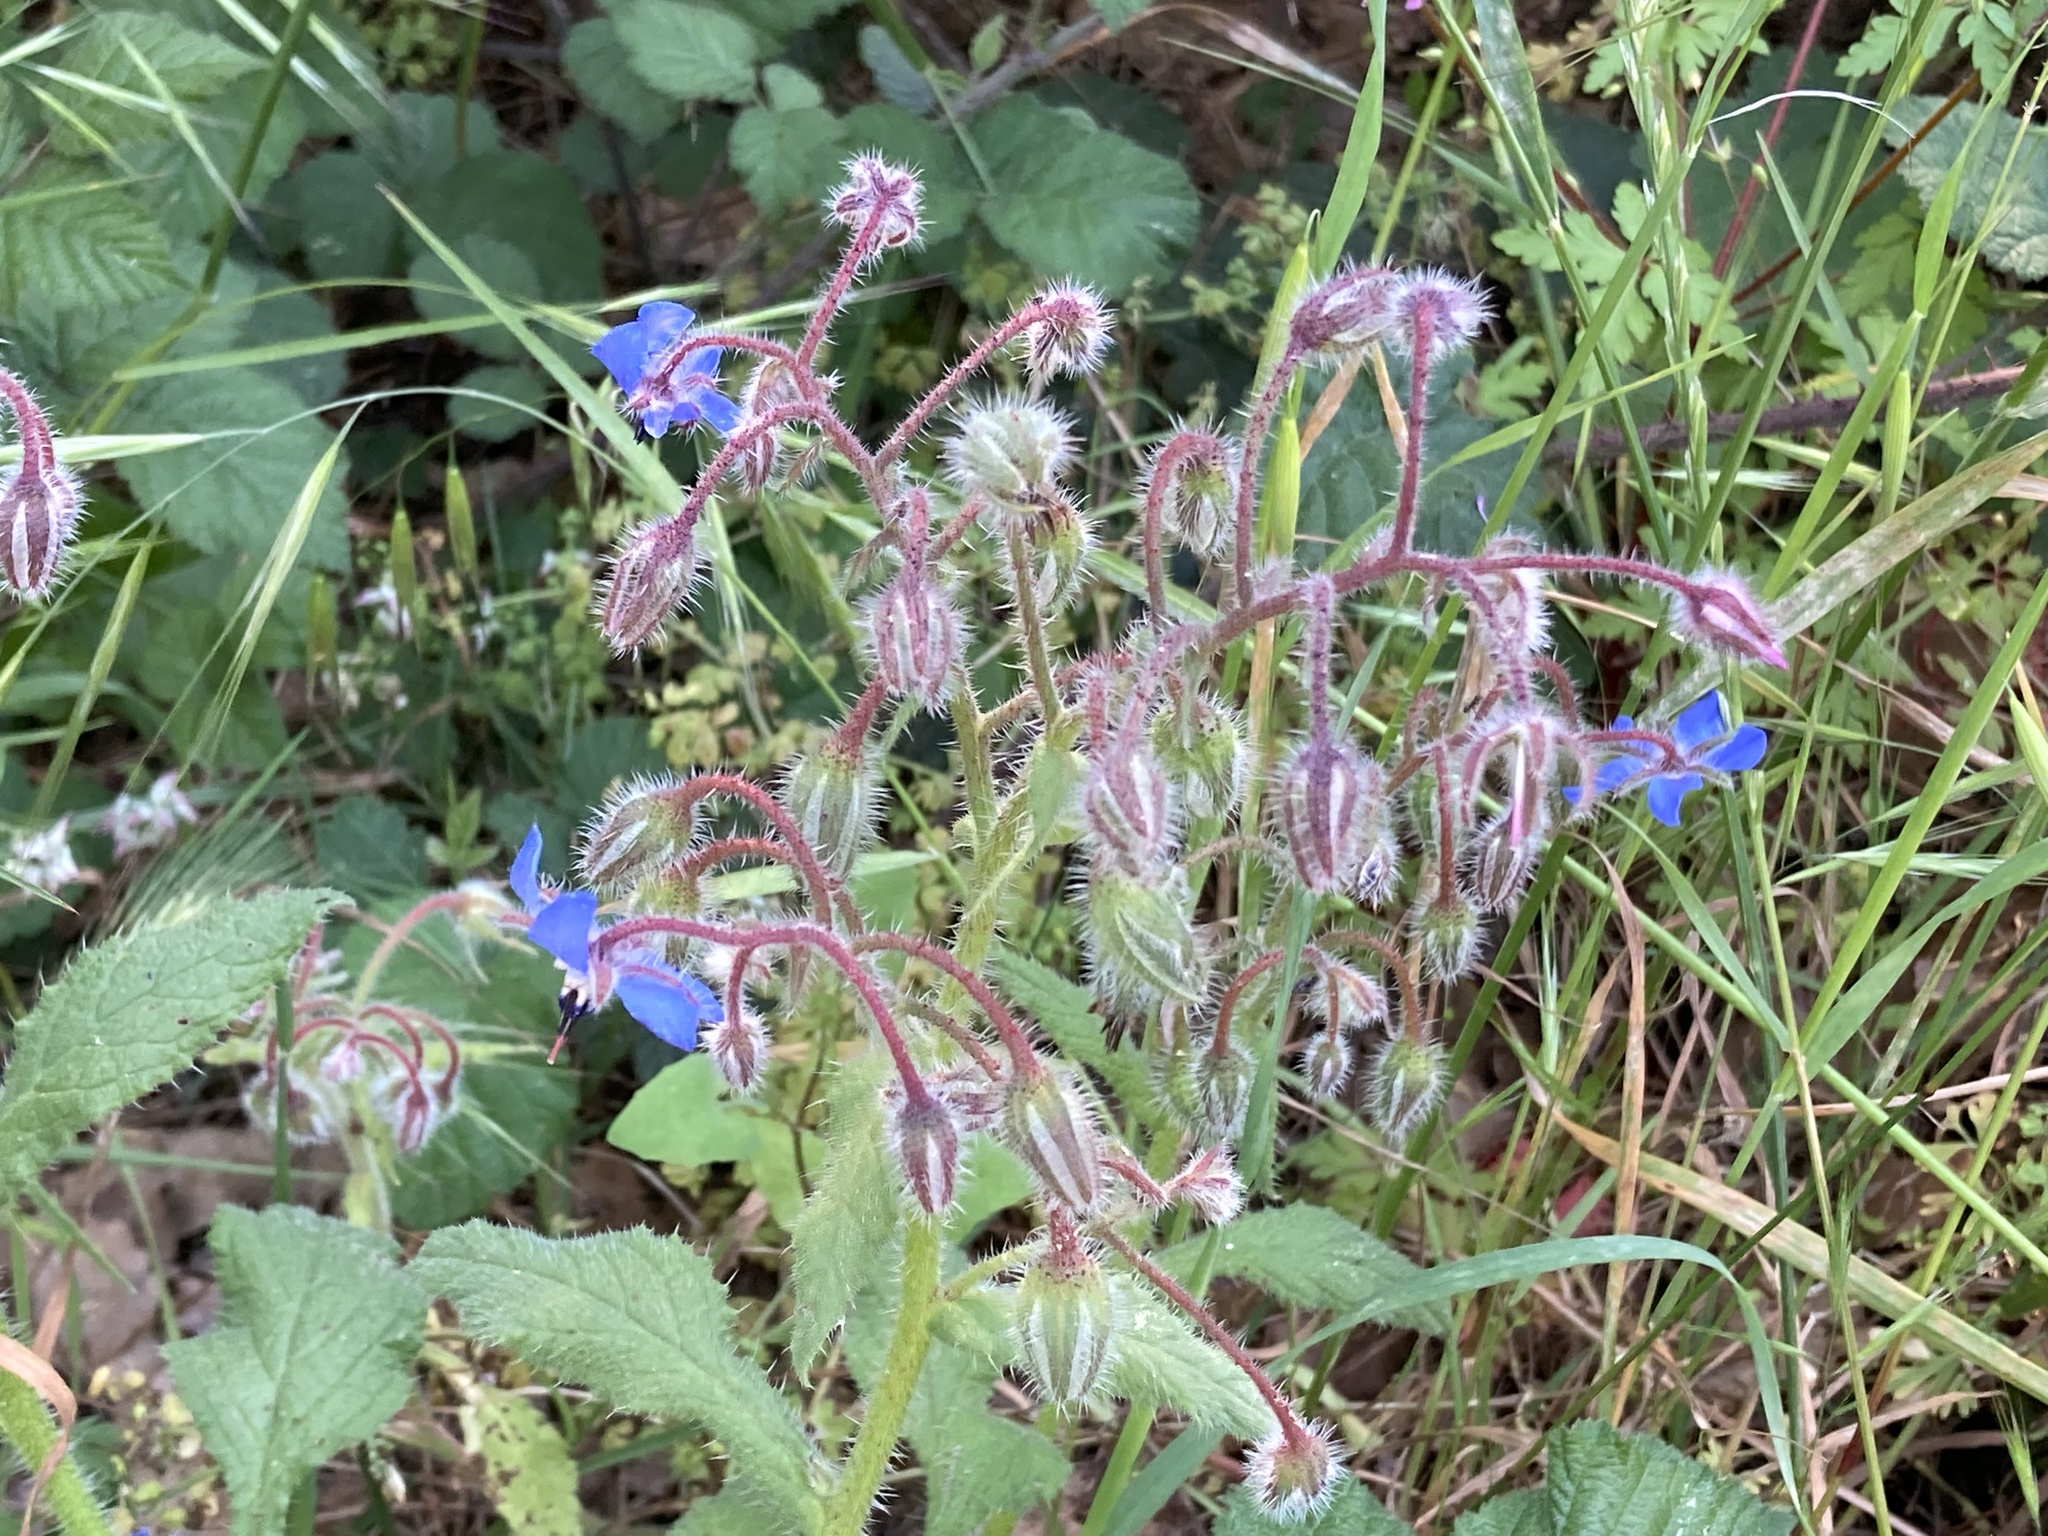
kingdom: Plantae
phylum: Tracheophyta
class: Magnoliopsida
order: Boraginales
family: Boraginaceae
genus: Borago
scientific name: Borago officinalis
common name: Borage
